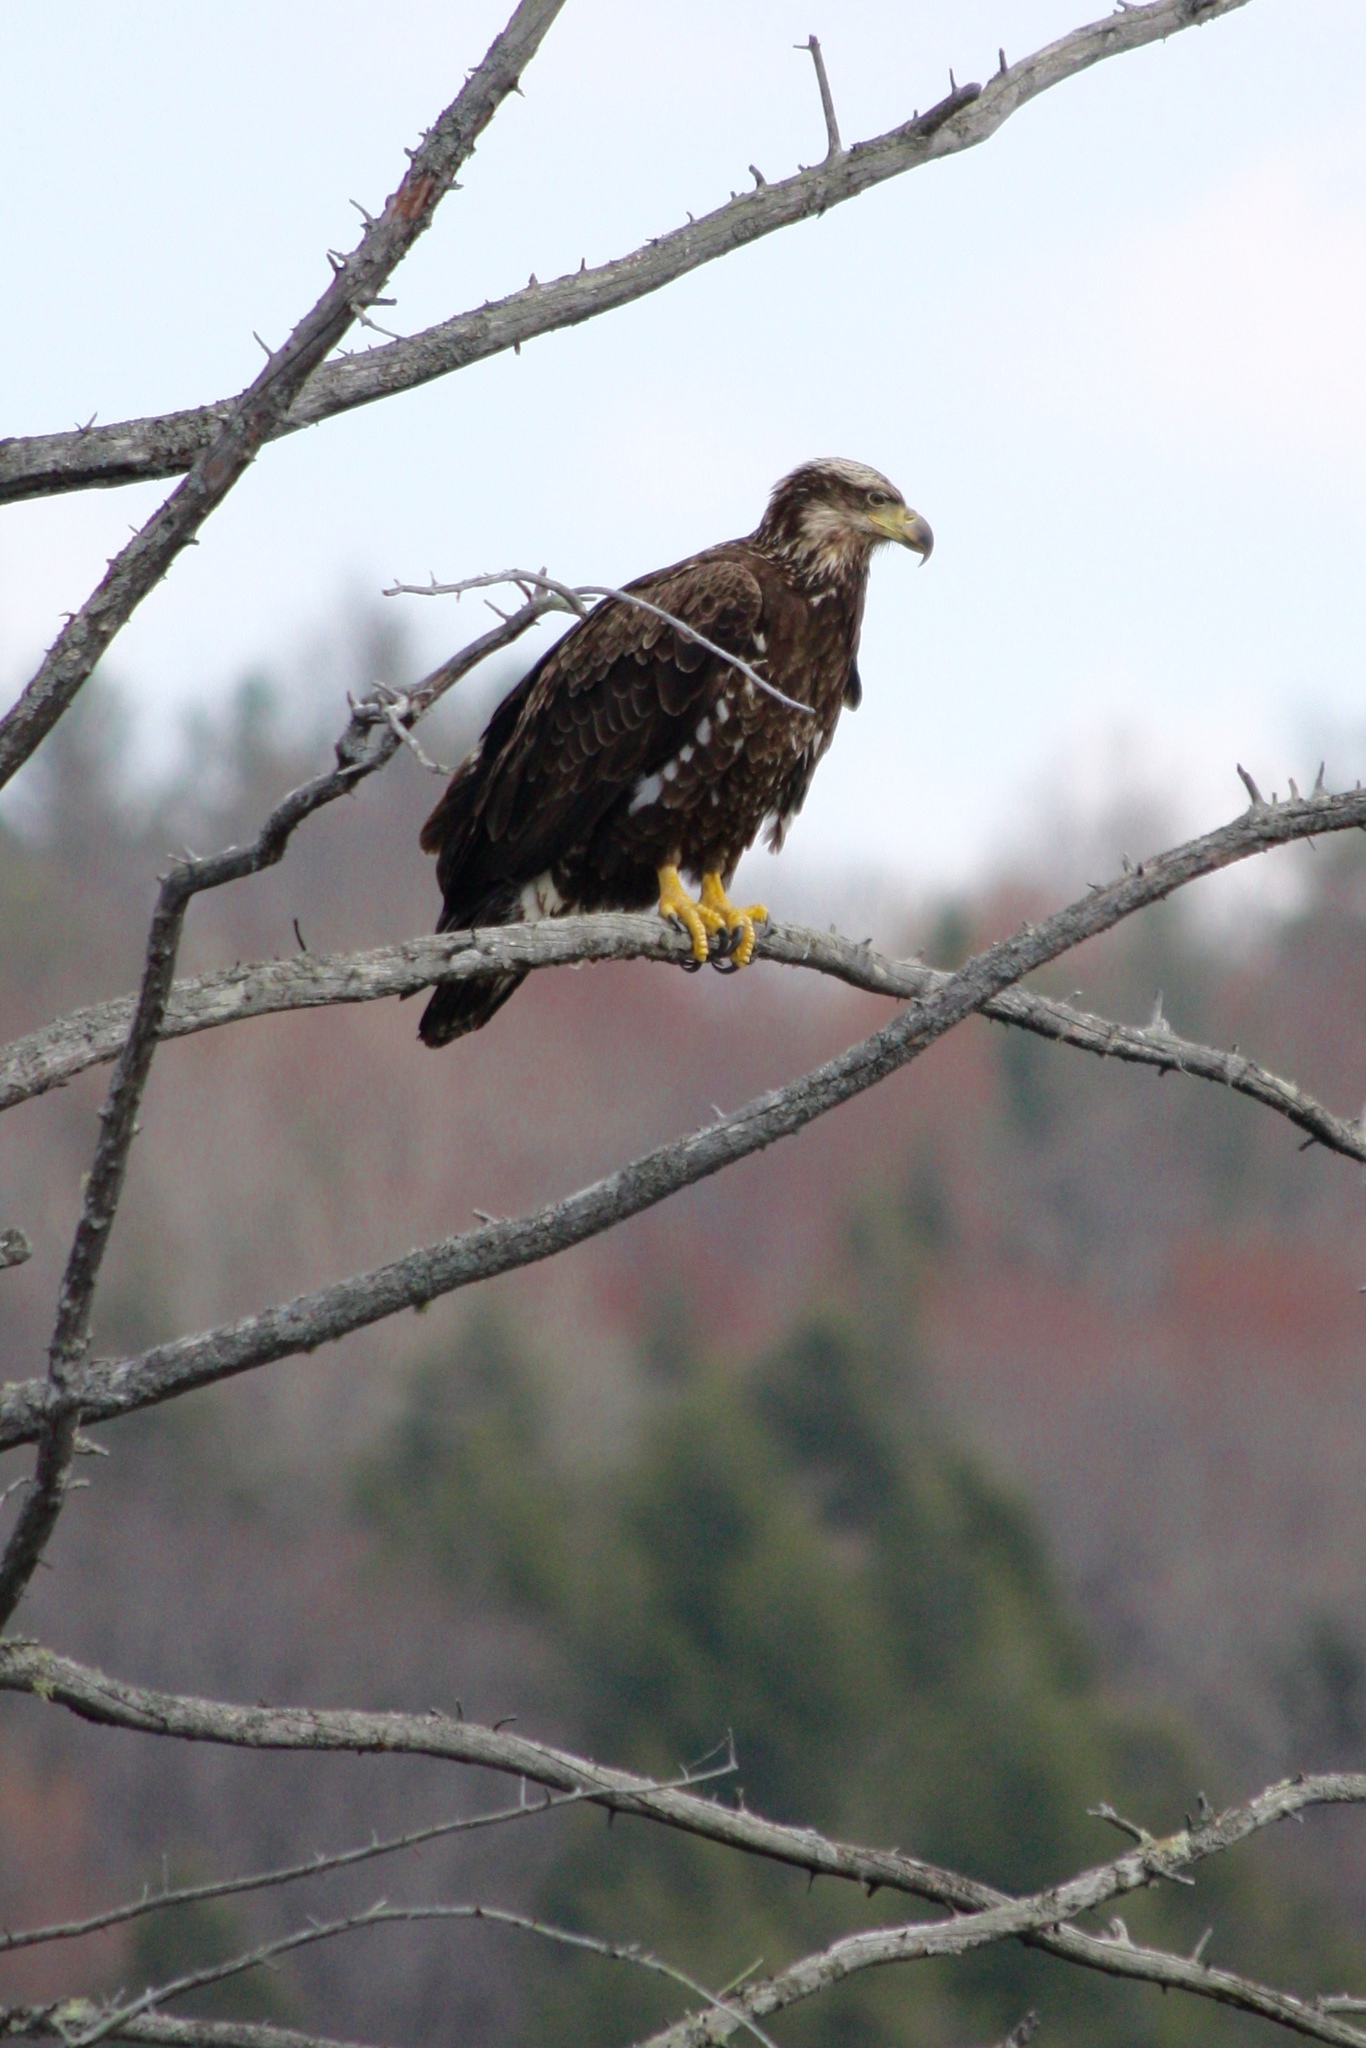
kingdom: Animalia
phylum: Chordata
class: Aves
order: Accipitriformes
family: Accipitridae
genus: Haliaeetus
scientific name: Haliaeetus leucocephalus
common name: Bald eagle
